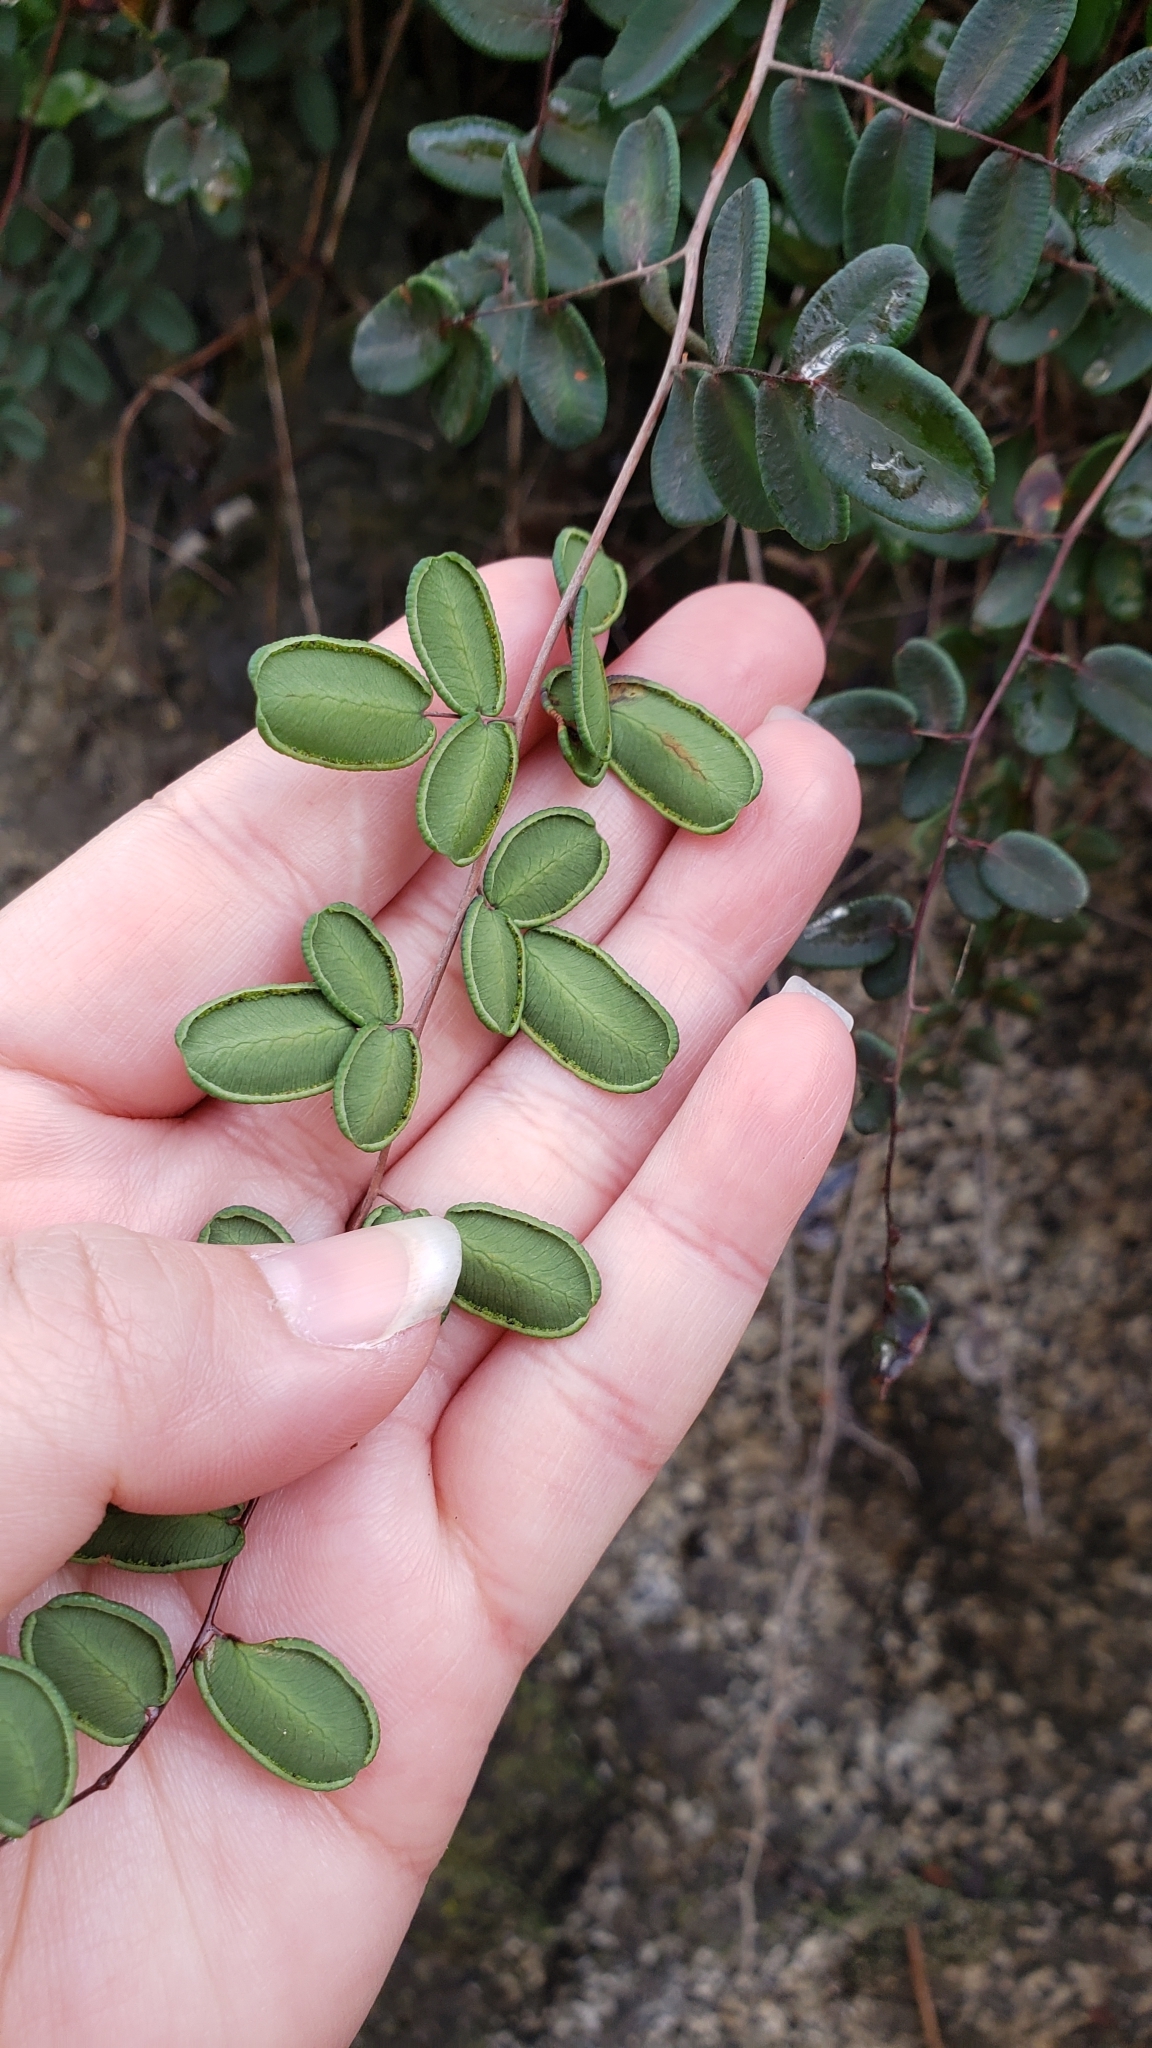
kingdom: Plantae
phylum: Tracheophyta
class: Polypodiopsida
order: Polypodiales
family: Pteridaceae
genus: Pellaea
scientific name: Pellaea andromedifolia
